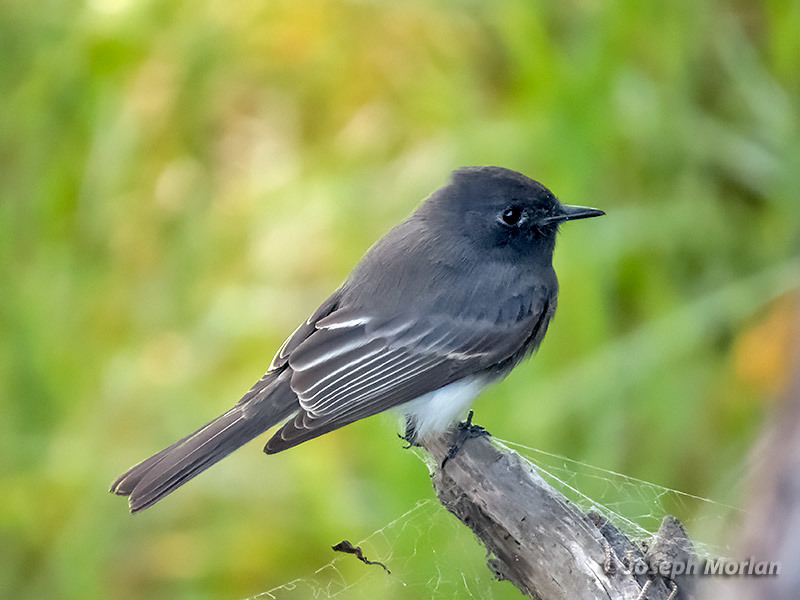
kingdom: Animalia
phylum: Chordata
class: Aves
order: Passeriformes
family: Tyrannidae
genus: Sayornis
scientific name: Sayornis nigricans
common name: Black phoebe
